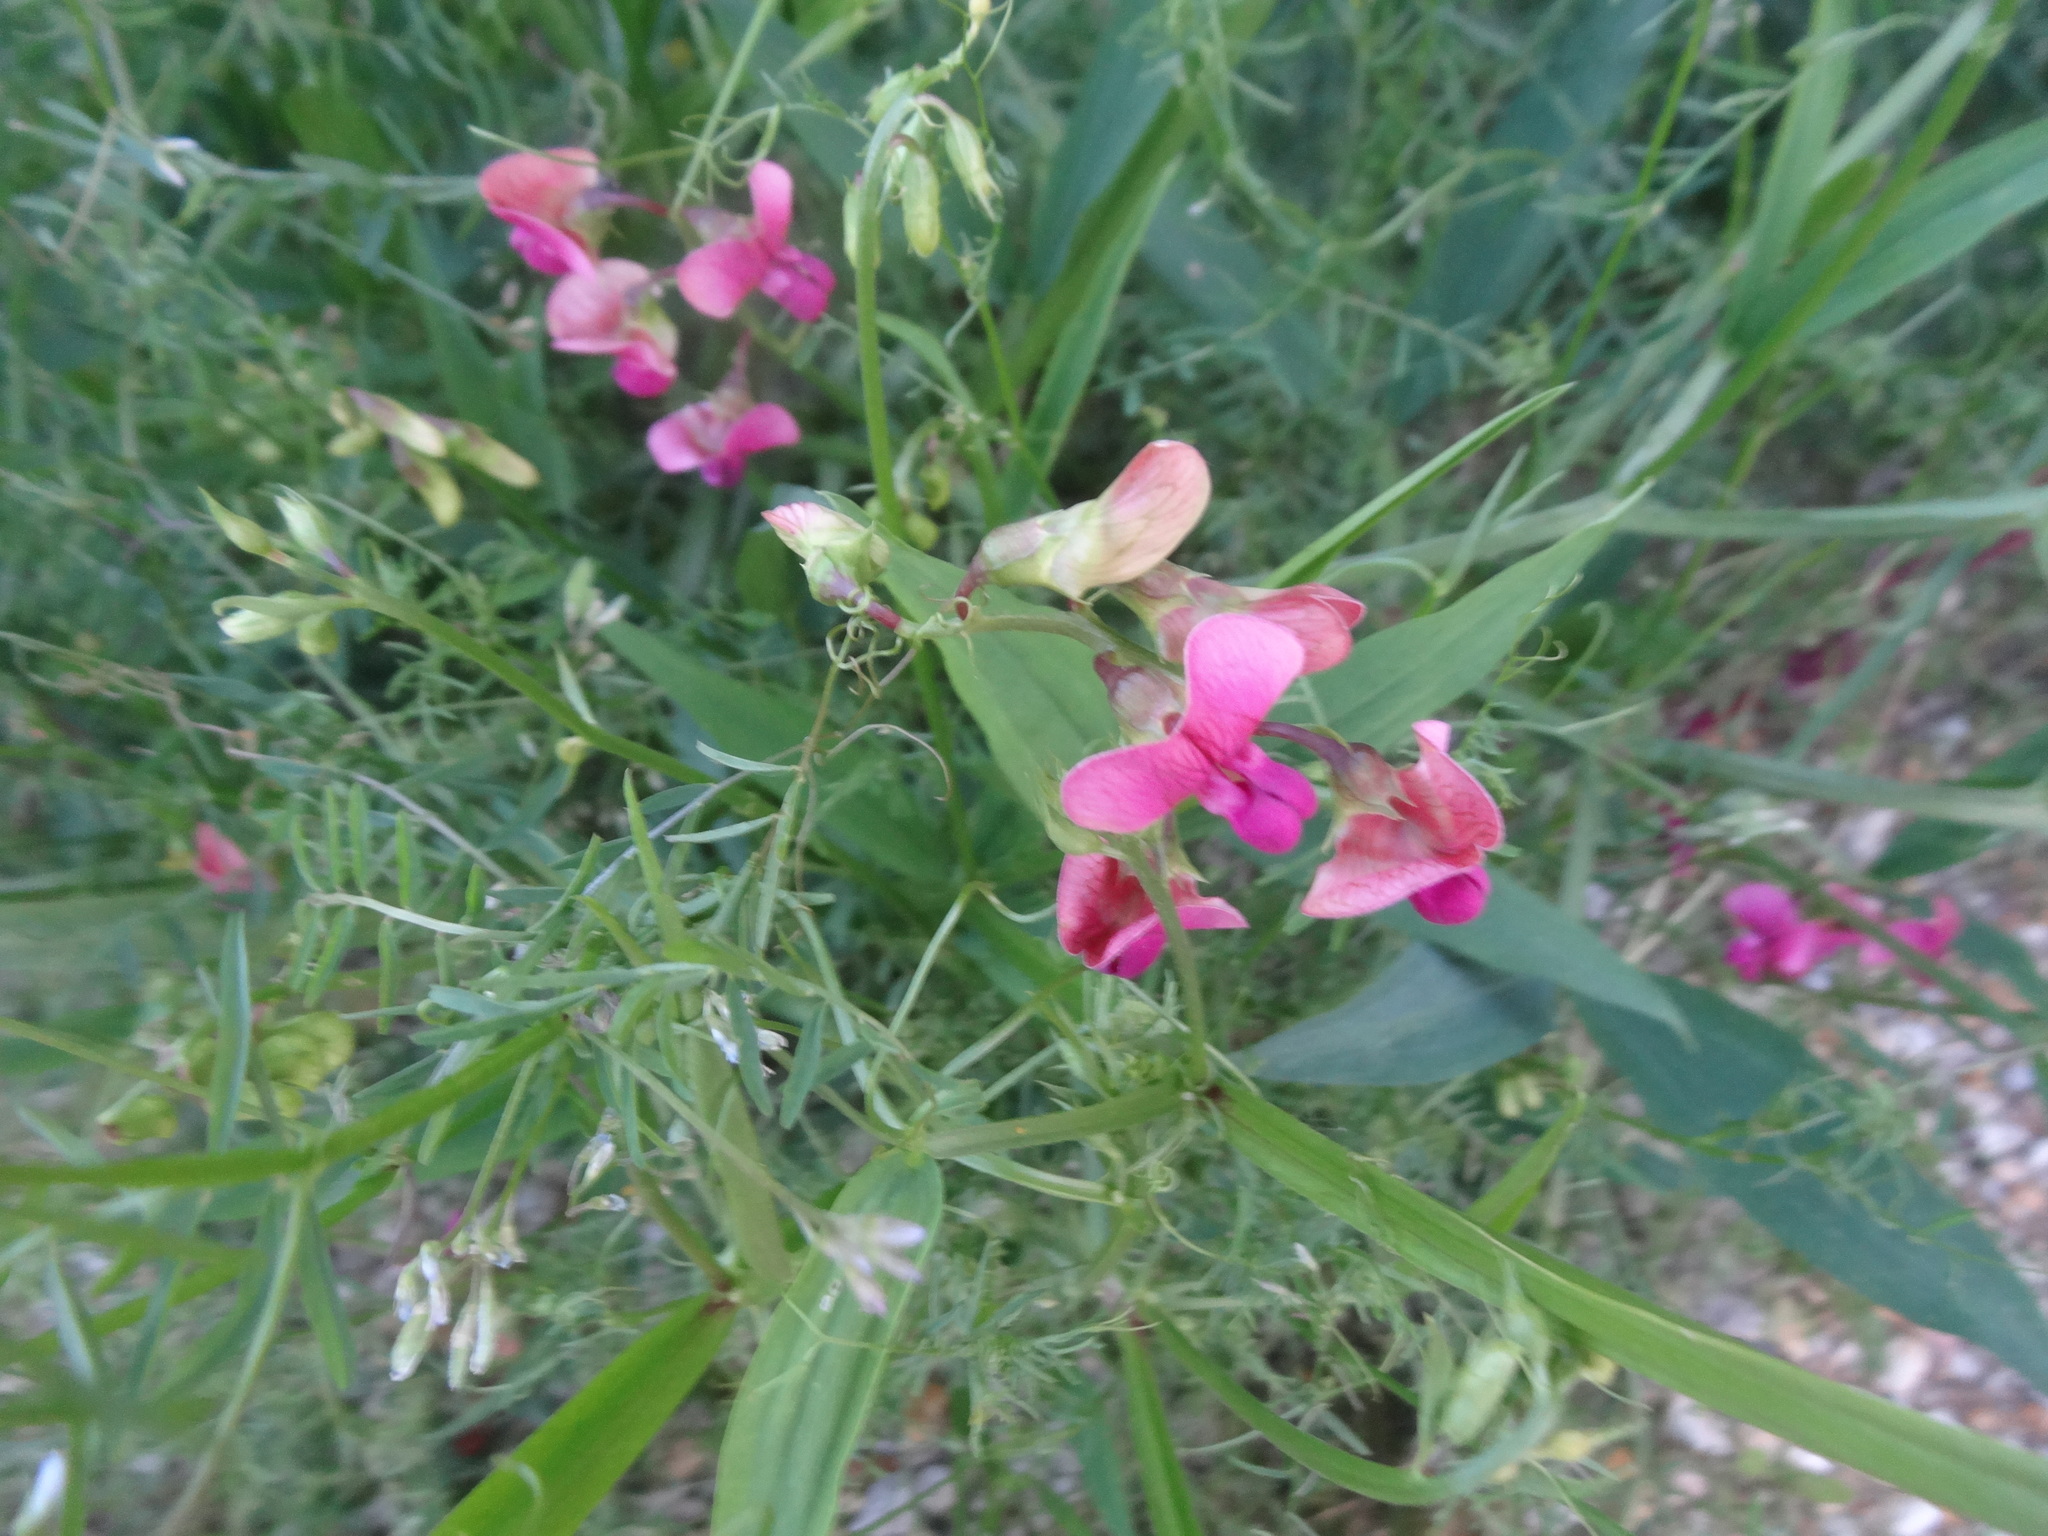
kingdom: Plantae
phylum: Tracheophyta
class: Magnoliopsida
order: Fabales
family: Fabaceae
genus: Lathyrus
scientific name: Lathyrus latifolius
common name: Perennial pea
